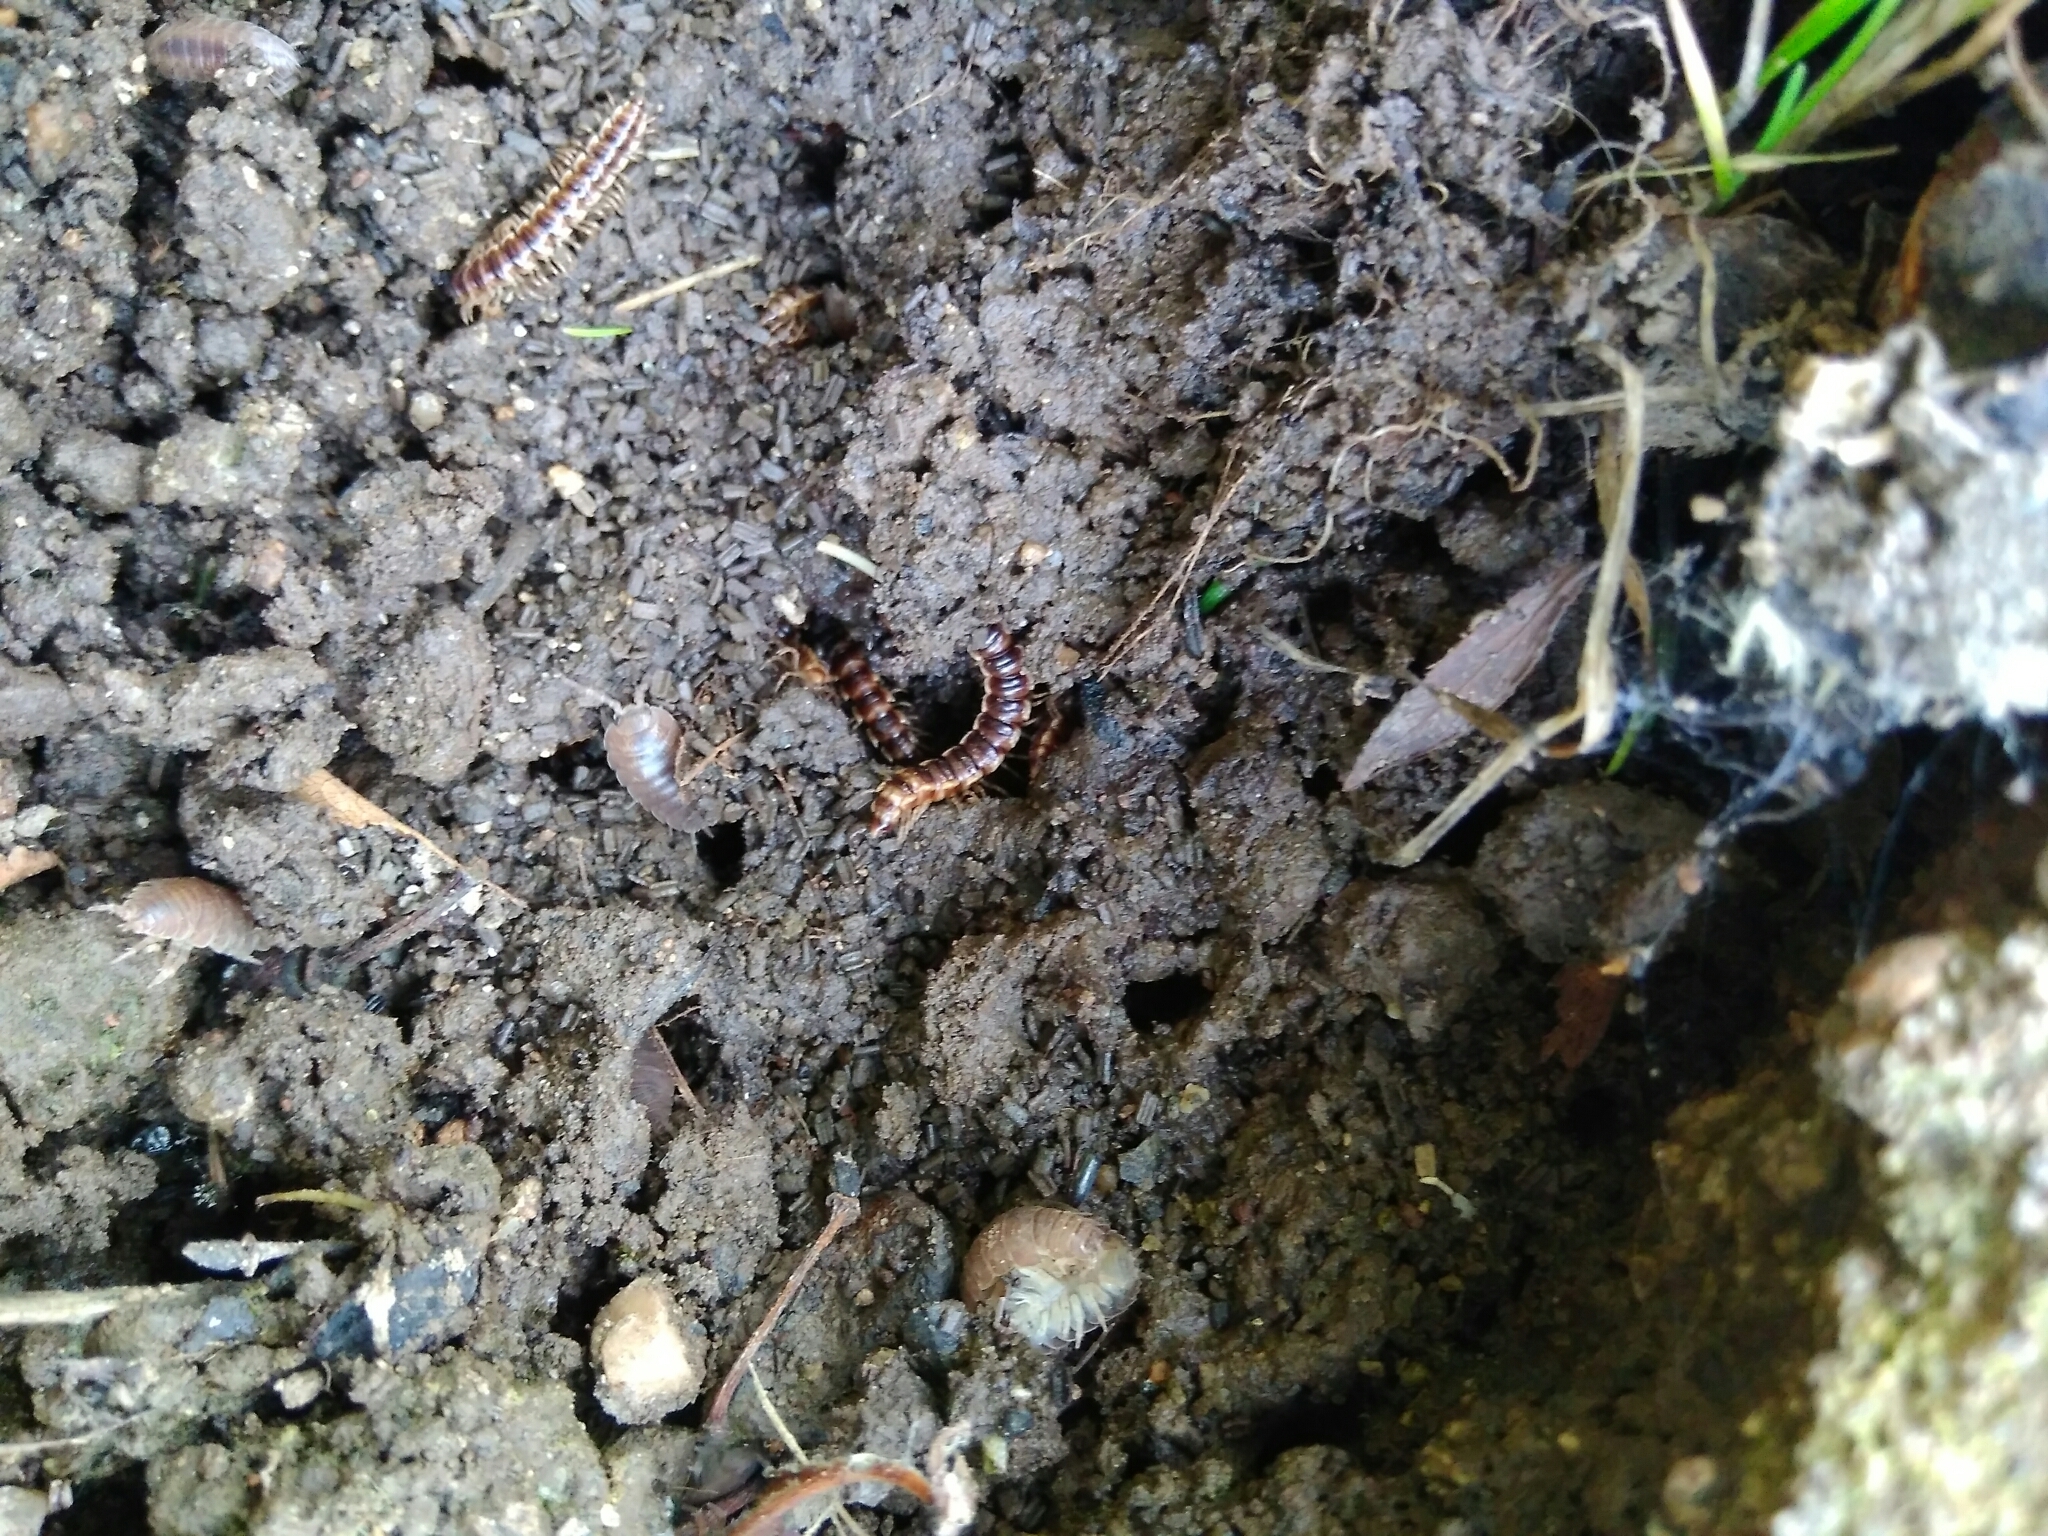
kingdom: Animalia
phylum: Arthropoda
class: Diplopoda
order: Polydesmida
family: Paradoxosomatidae
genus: Oxidus
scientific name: Oxidus gracilis
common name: Greenhouse millipede
